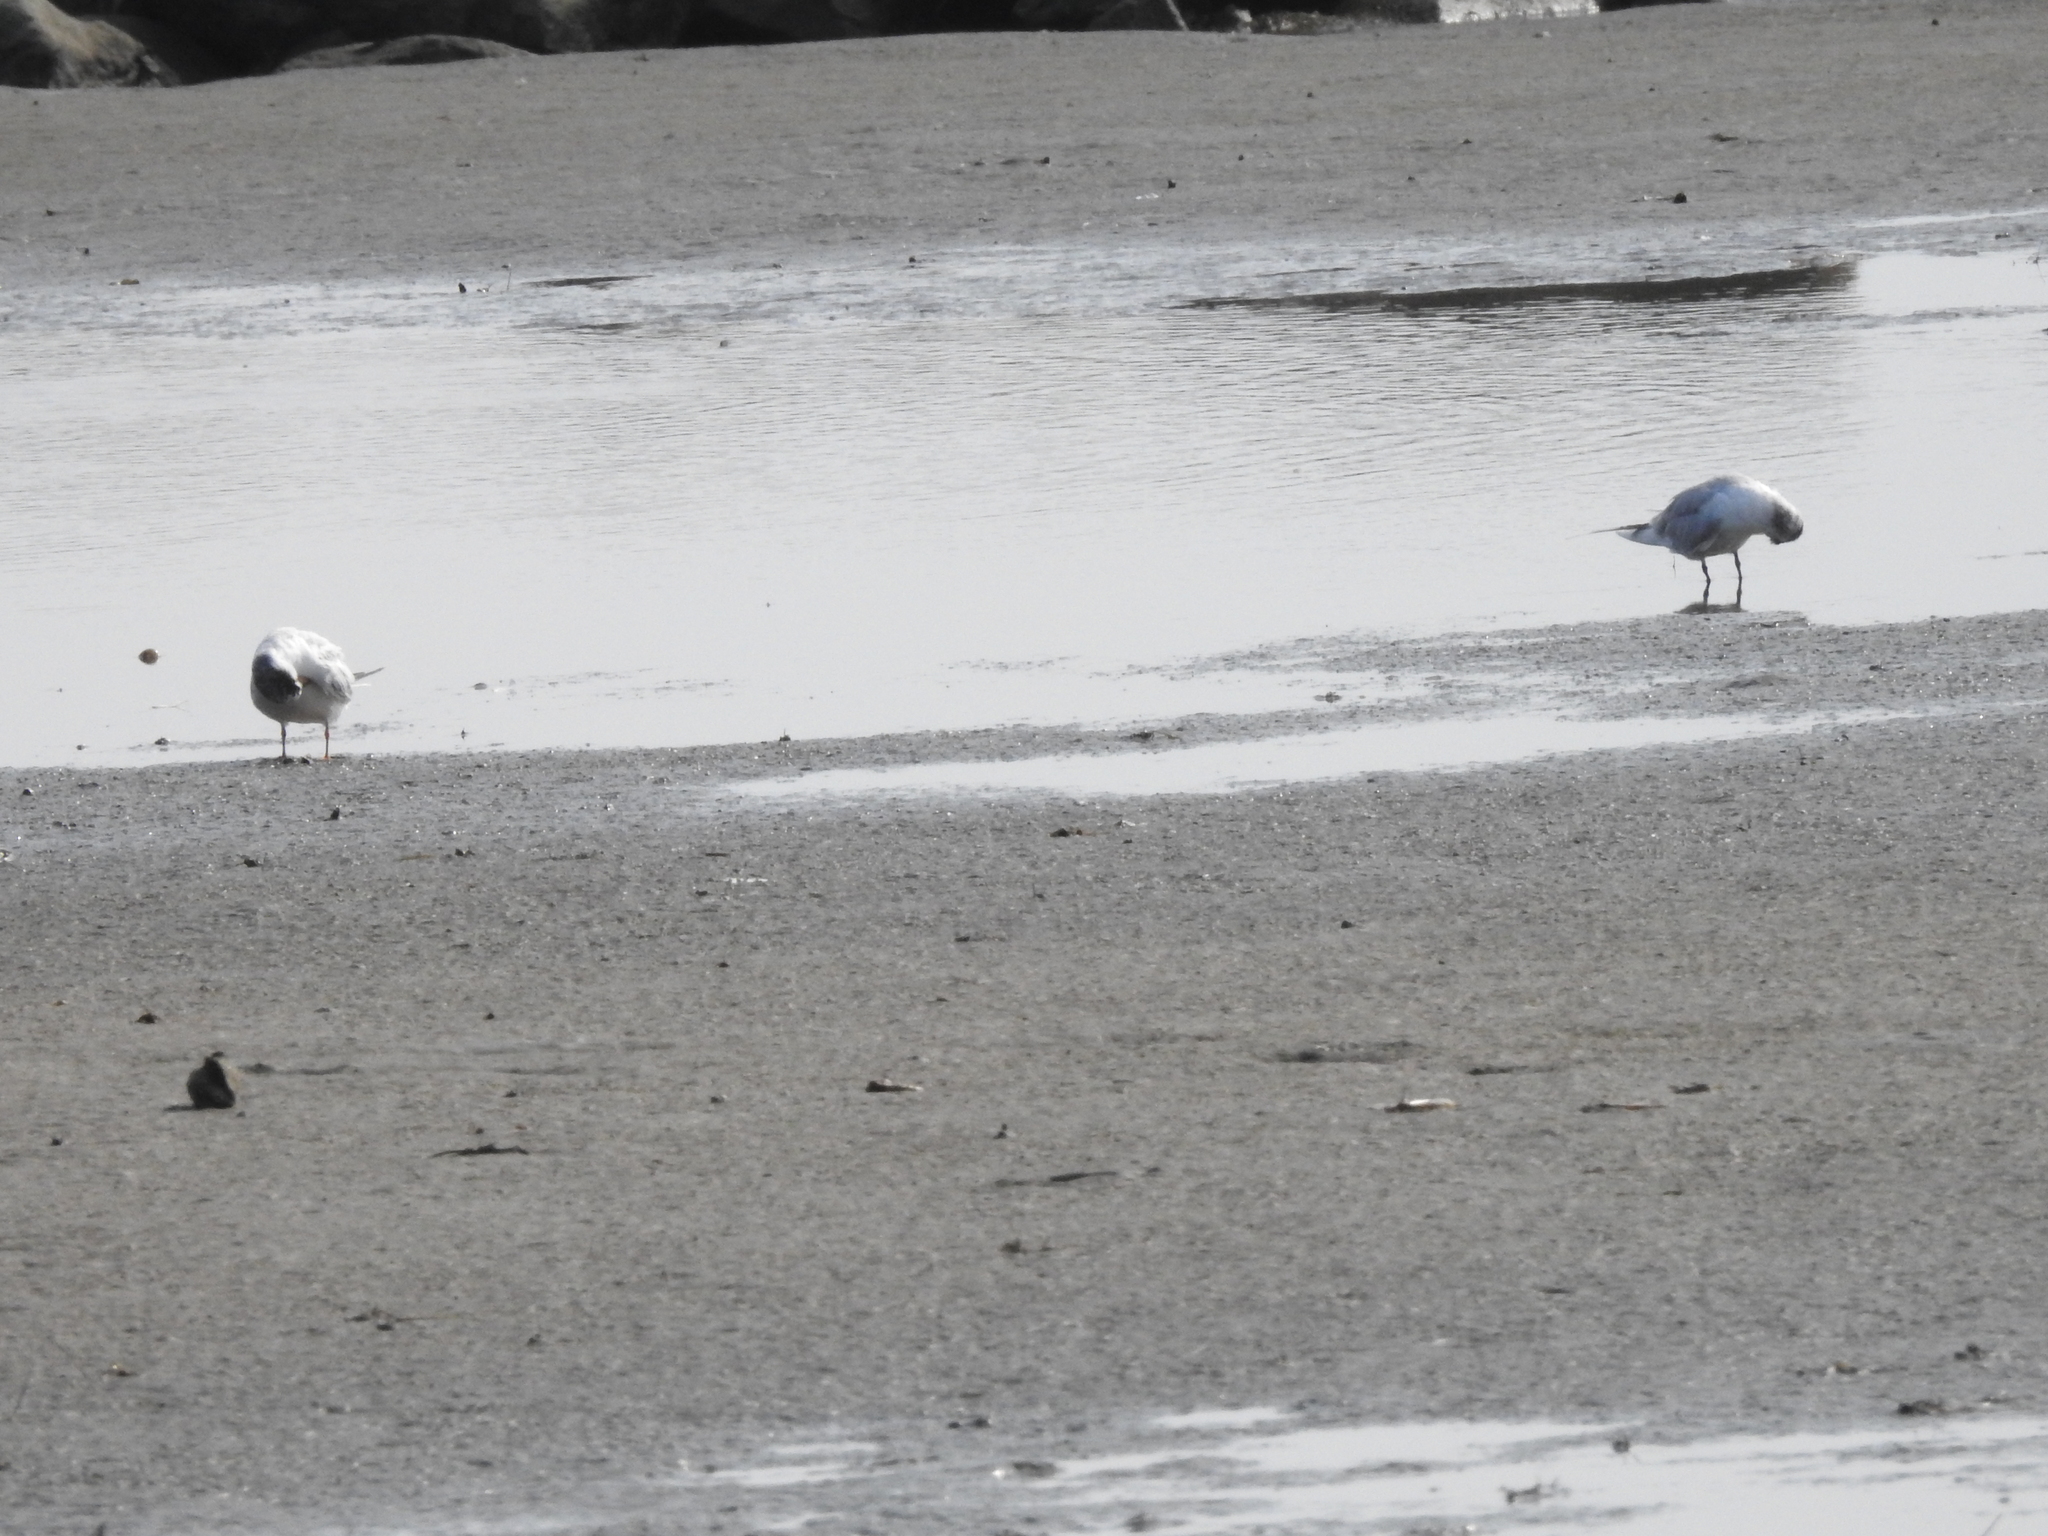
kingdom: Animalia
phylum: Chordata
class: Aves
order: Charadriiformes
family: Laridae
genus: Sterna
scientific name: Sterna forsteri
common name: Forster's tern
